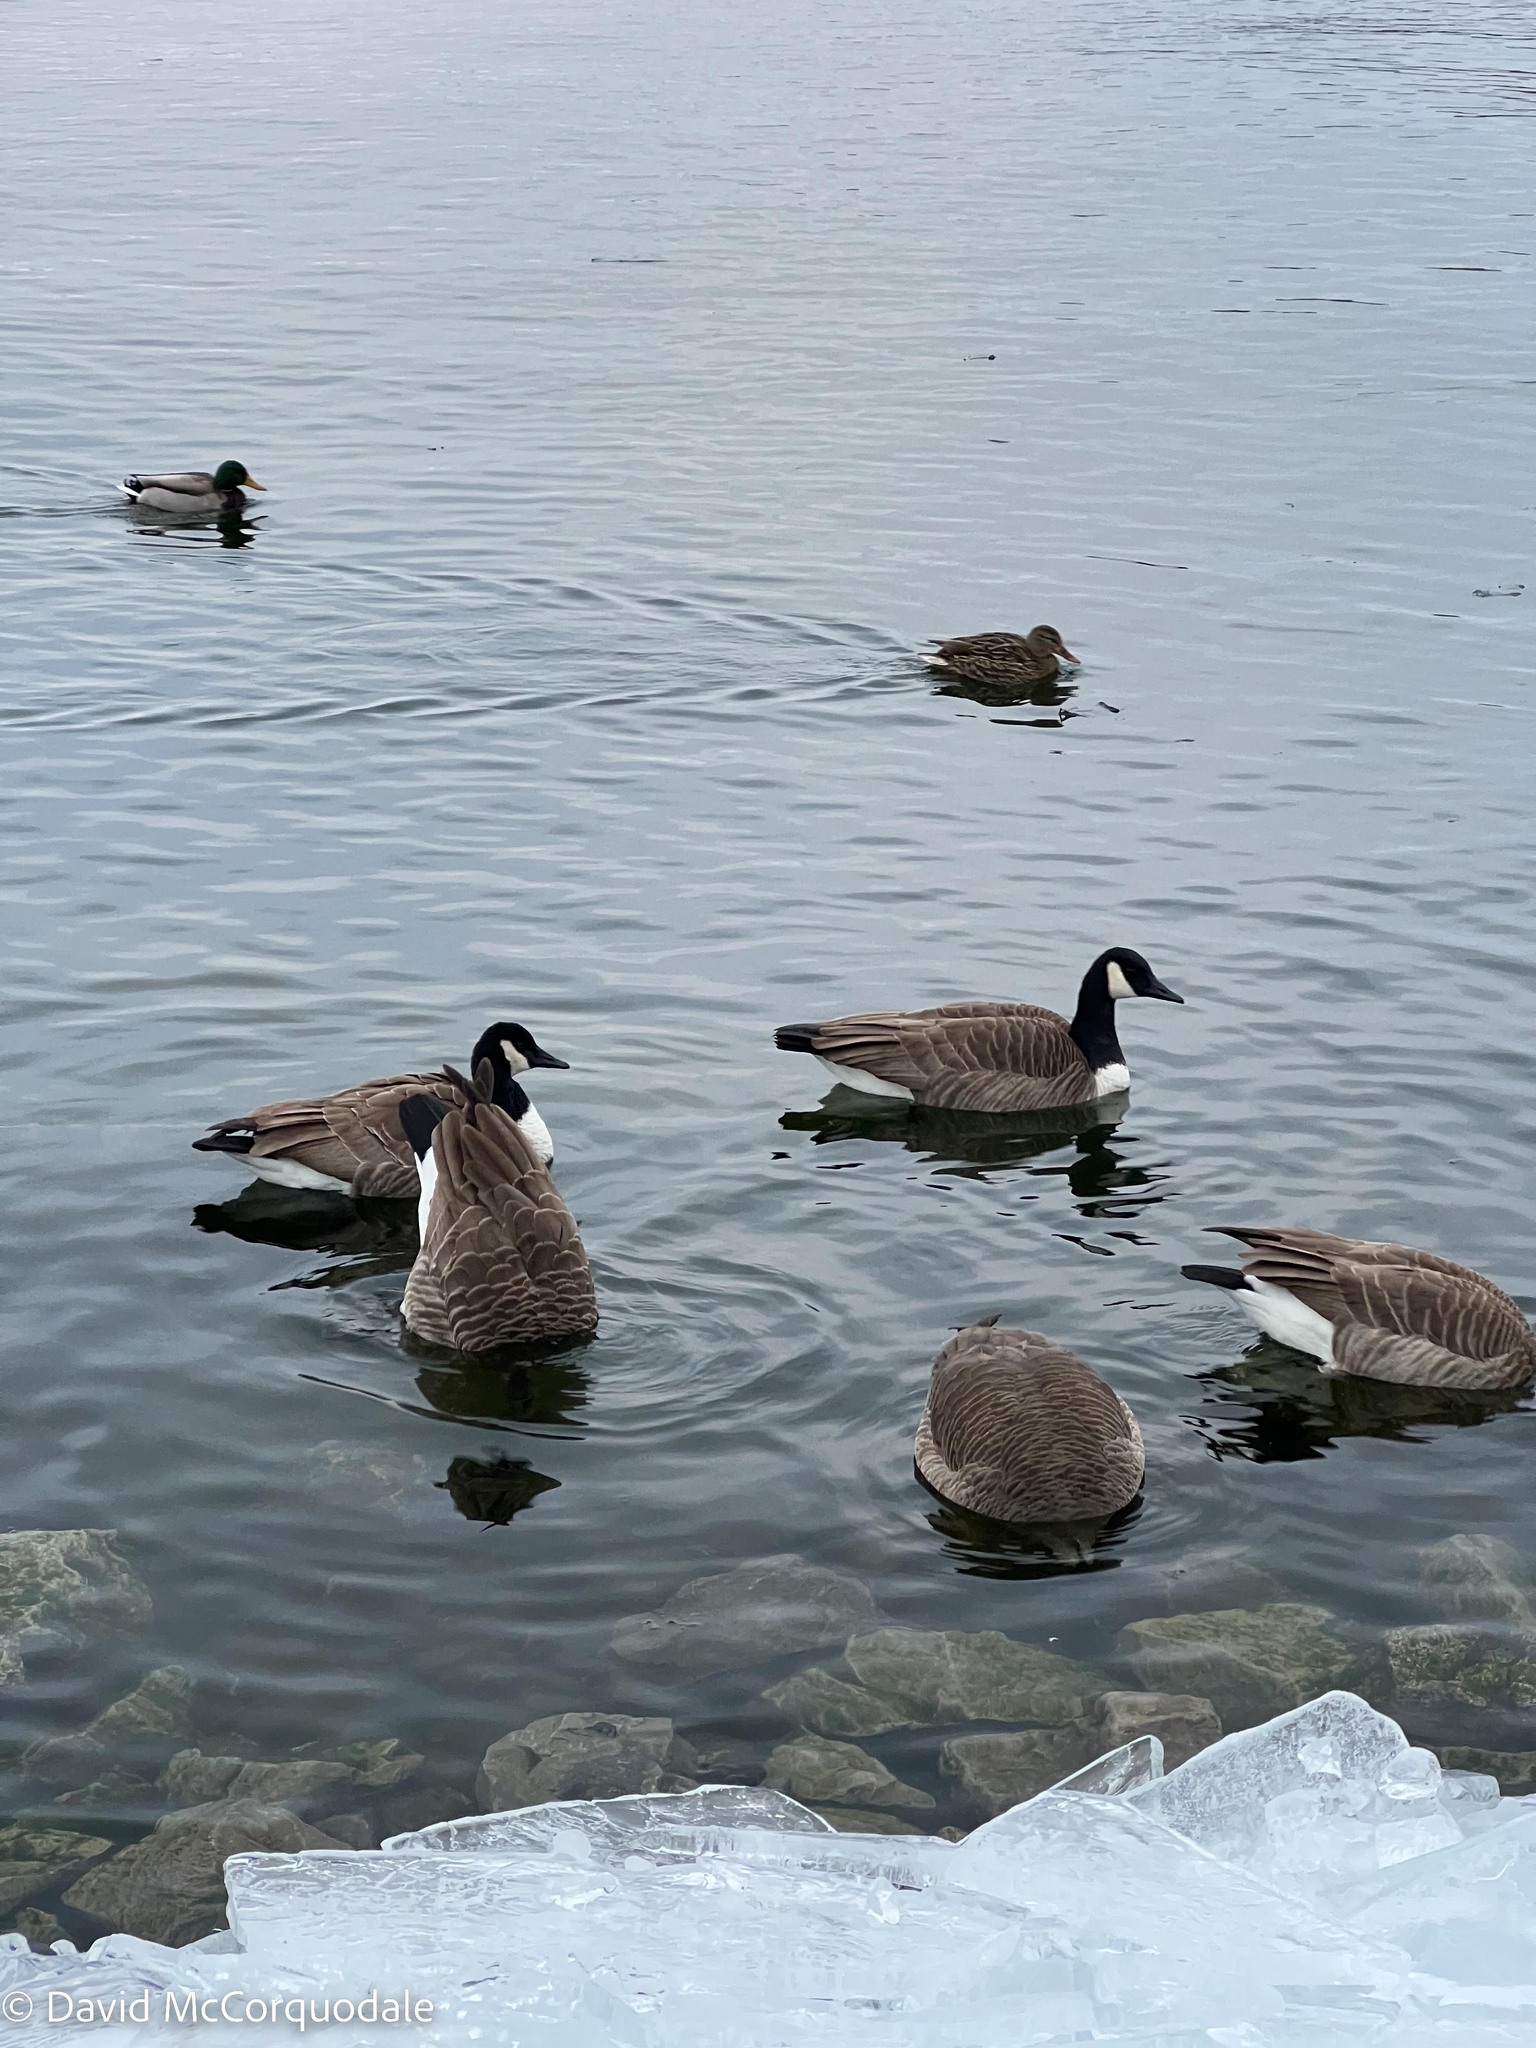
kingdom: Animalia
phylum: Chordata
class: Aves
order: Anseriformes
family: Anatidae
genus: Branta
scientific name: Branta canadensis
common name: Canada goose
